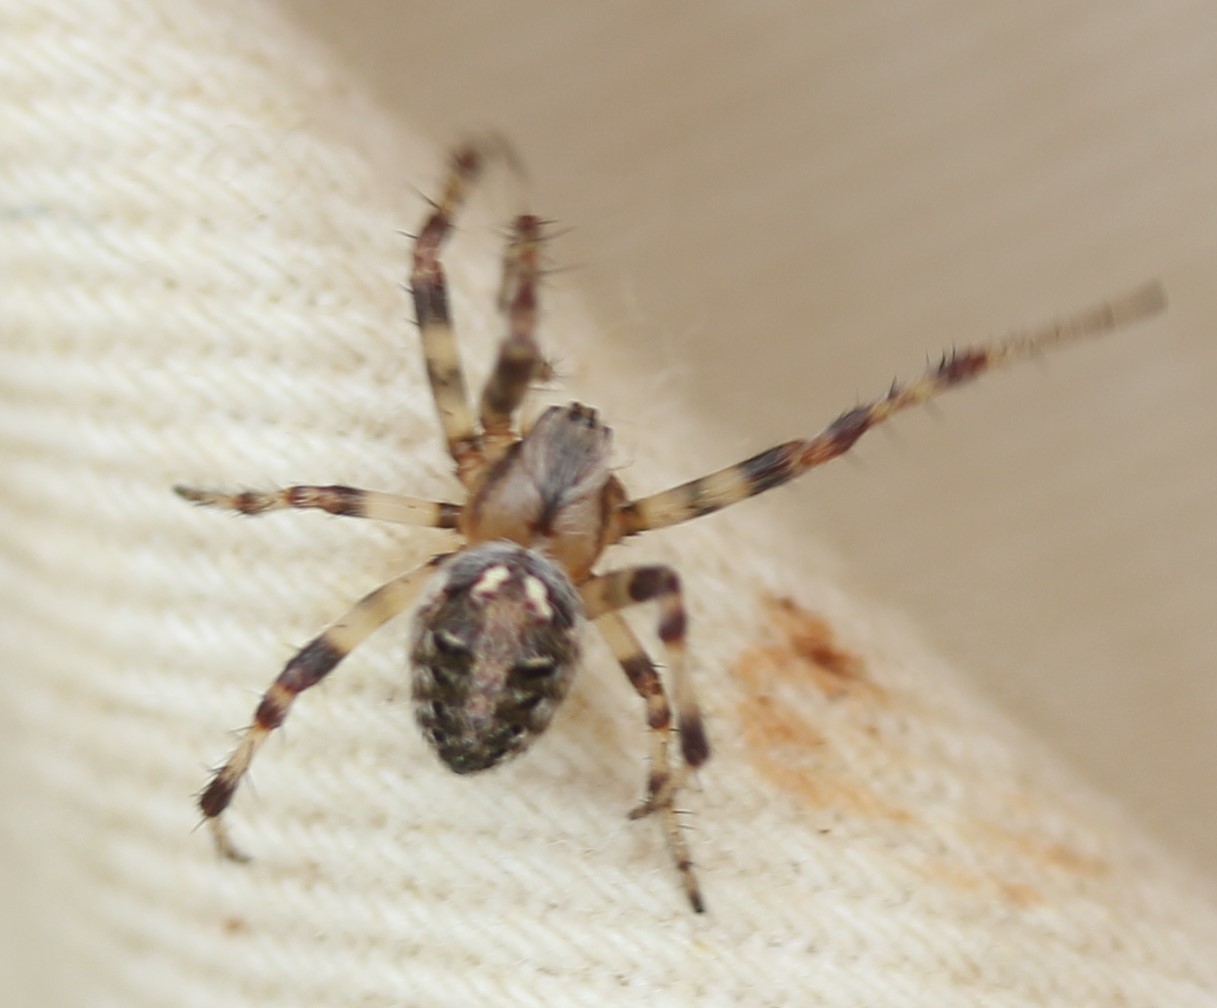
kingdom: Animalia
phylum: Arthropoda
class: Arachnida
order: Araneae
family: Araneidae
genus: Neoscona
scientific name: Neoscona arabesca
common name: Orb weavers
